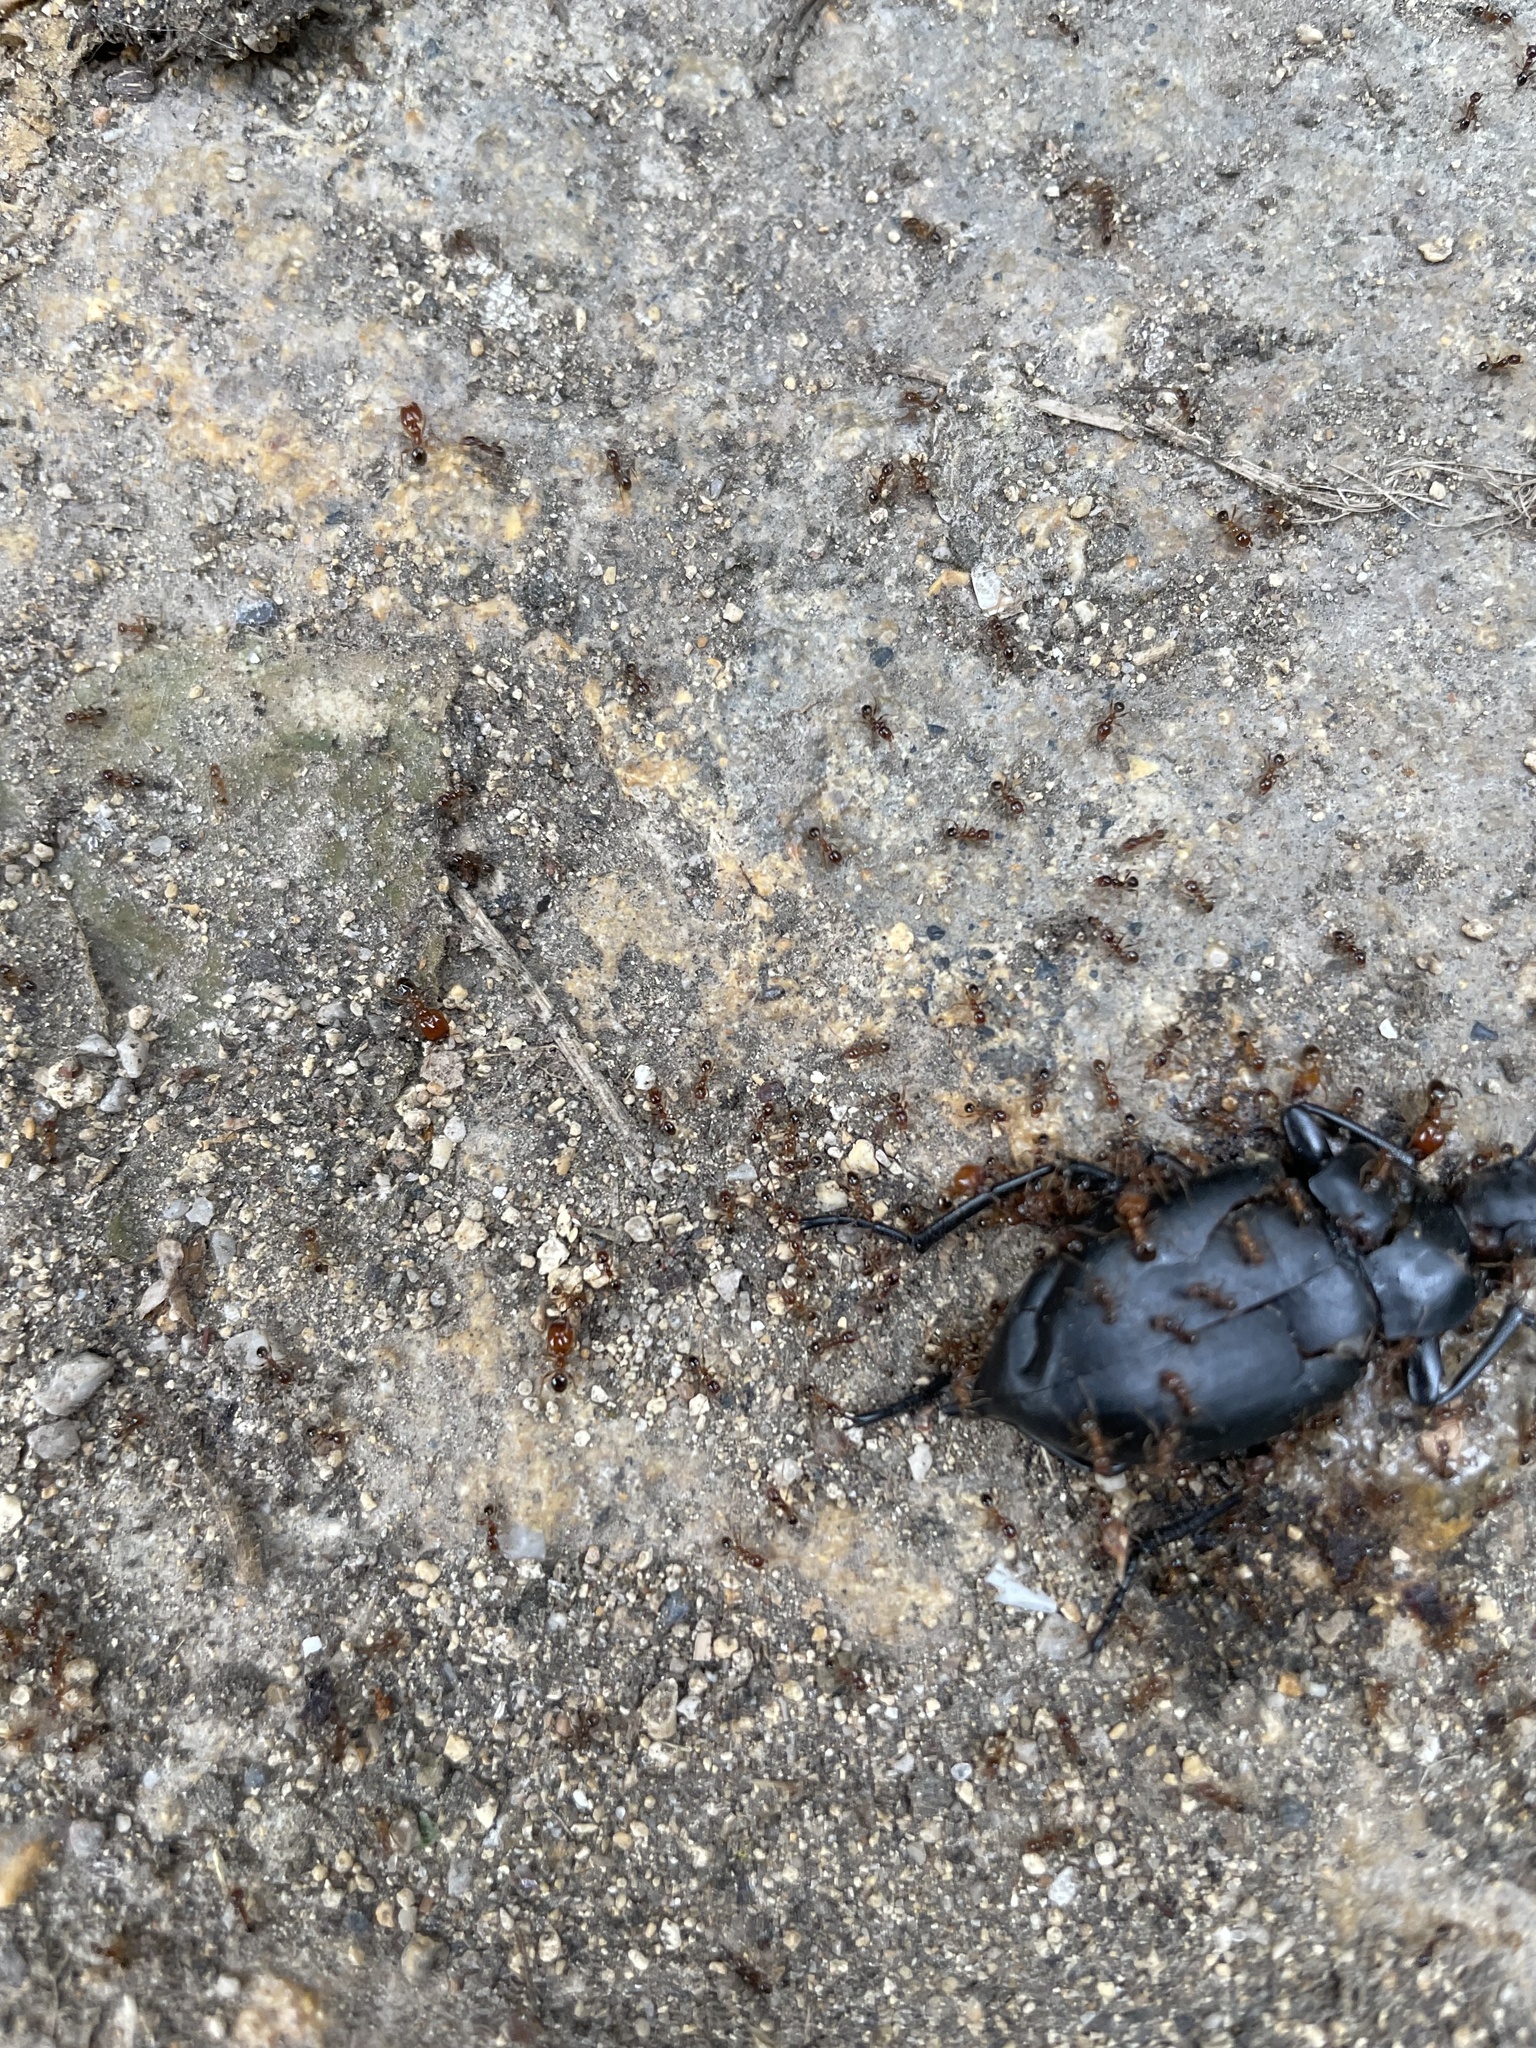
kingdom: Animalia
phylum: Arthropoda
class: Insecta
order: Hymenoptera
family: Formicidae
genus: Pheidole
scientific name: Pheidole pallidula
